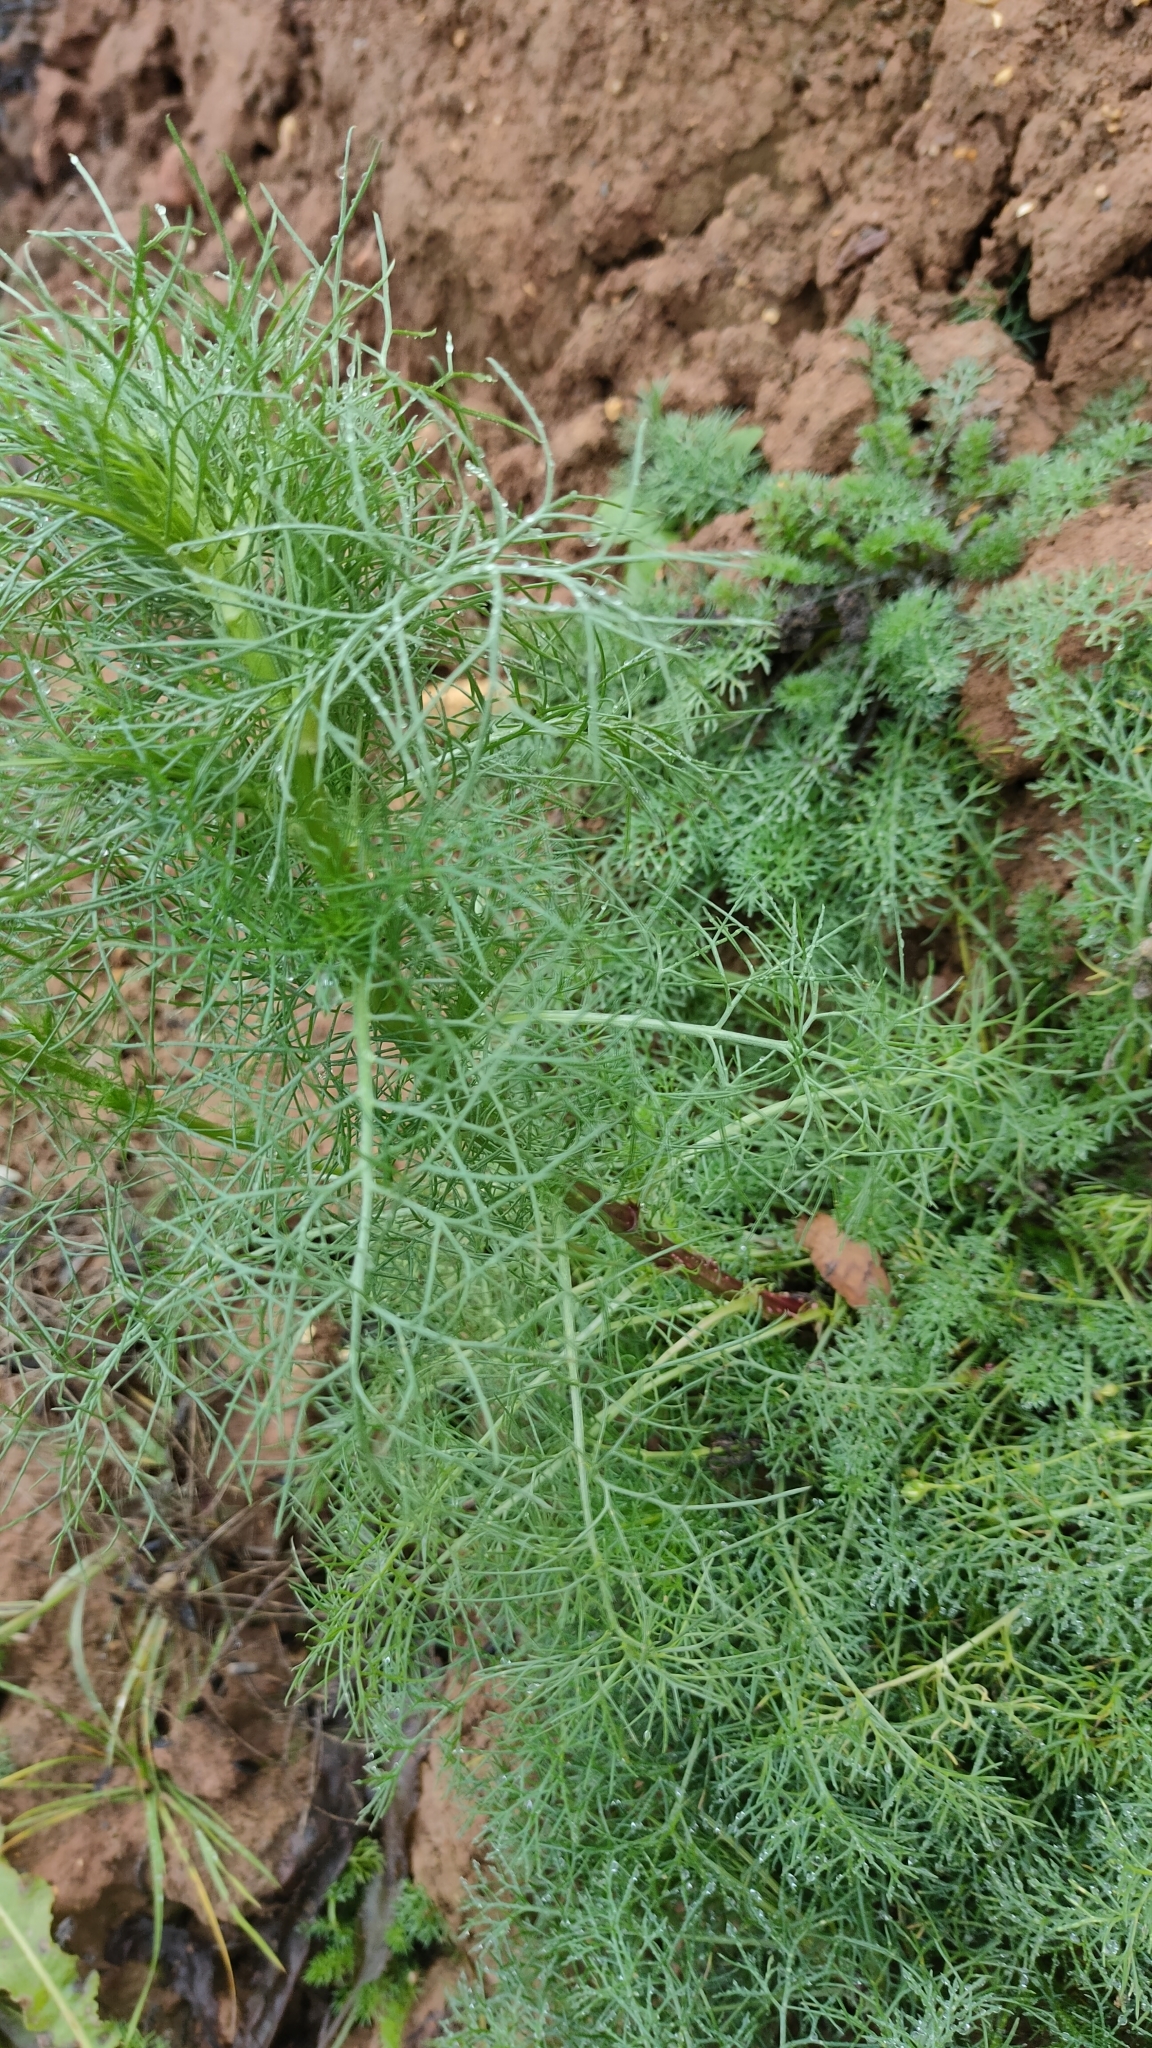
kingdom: Plantae
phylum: Tracheophyta
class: Magnoliopsida
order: Asterales
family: Asteraceae
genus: Tripleurospermum
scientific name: Tripleurospermum inodorum
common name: Scentless mayweed
